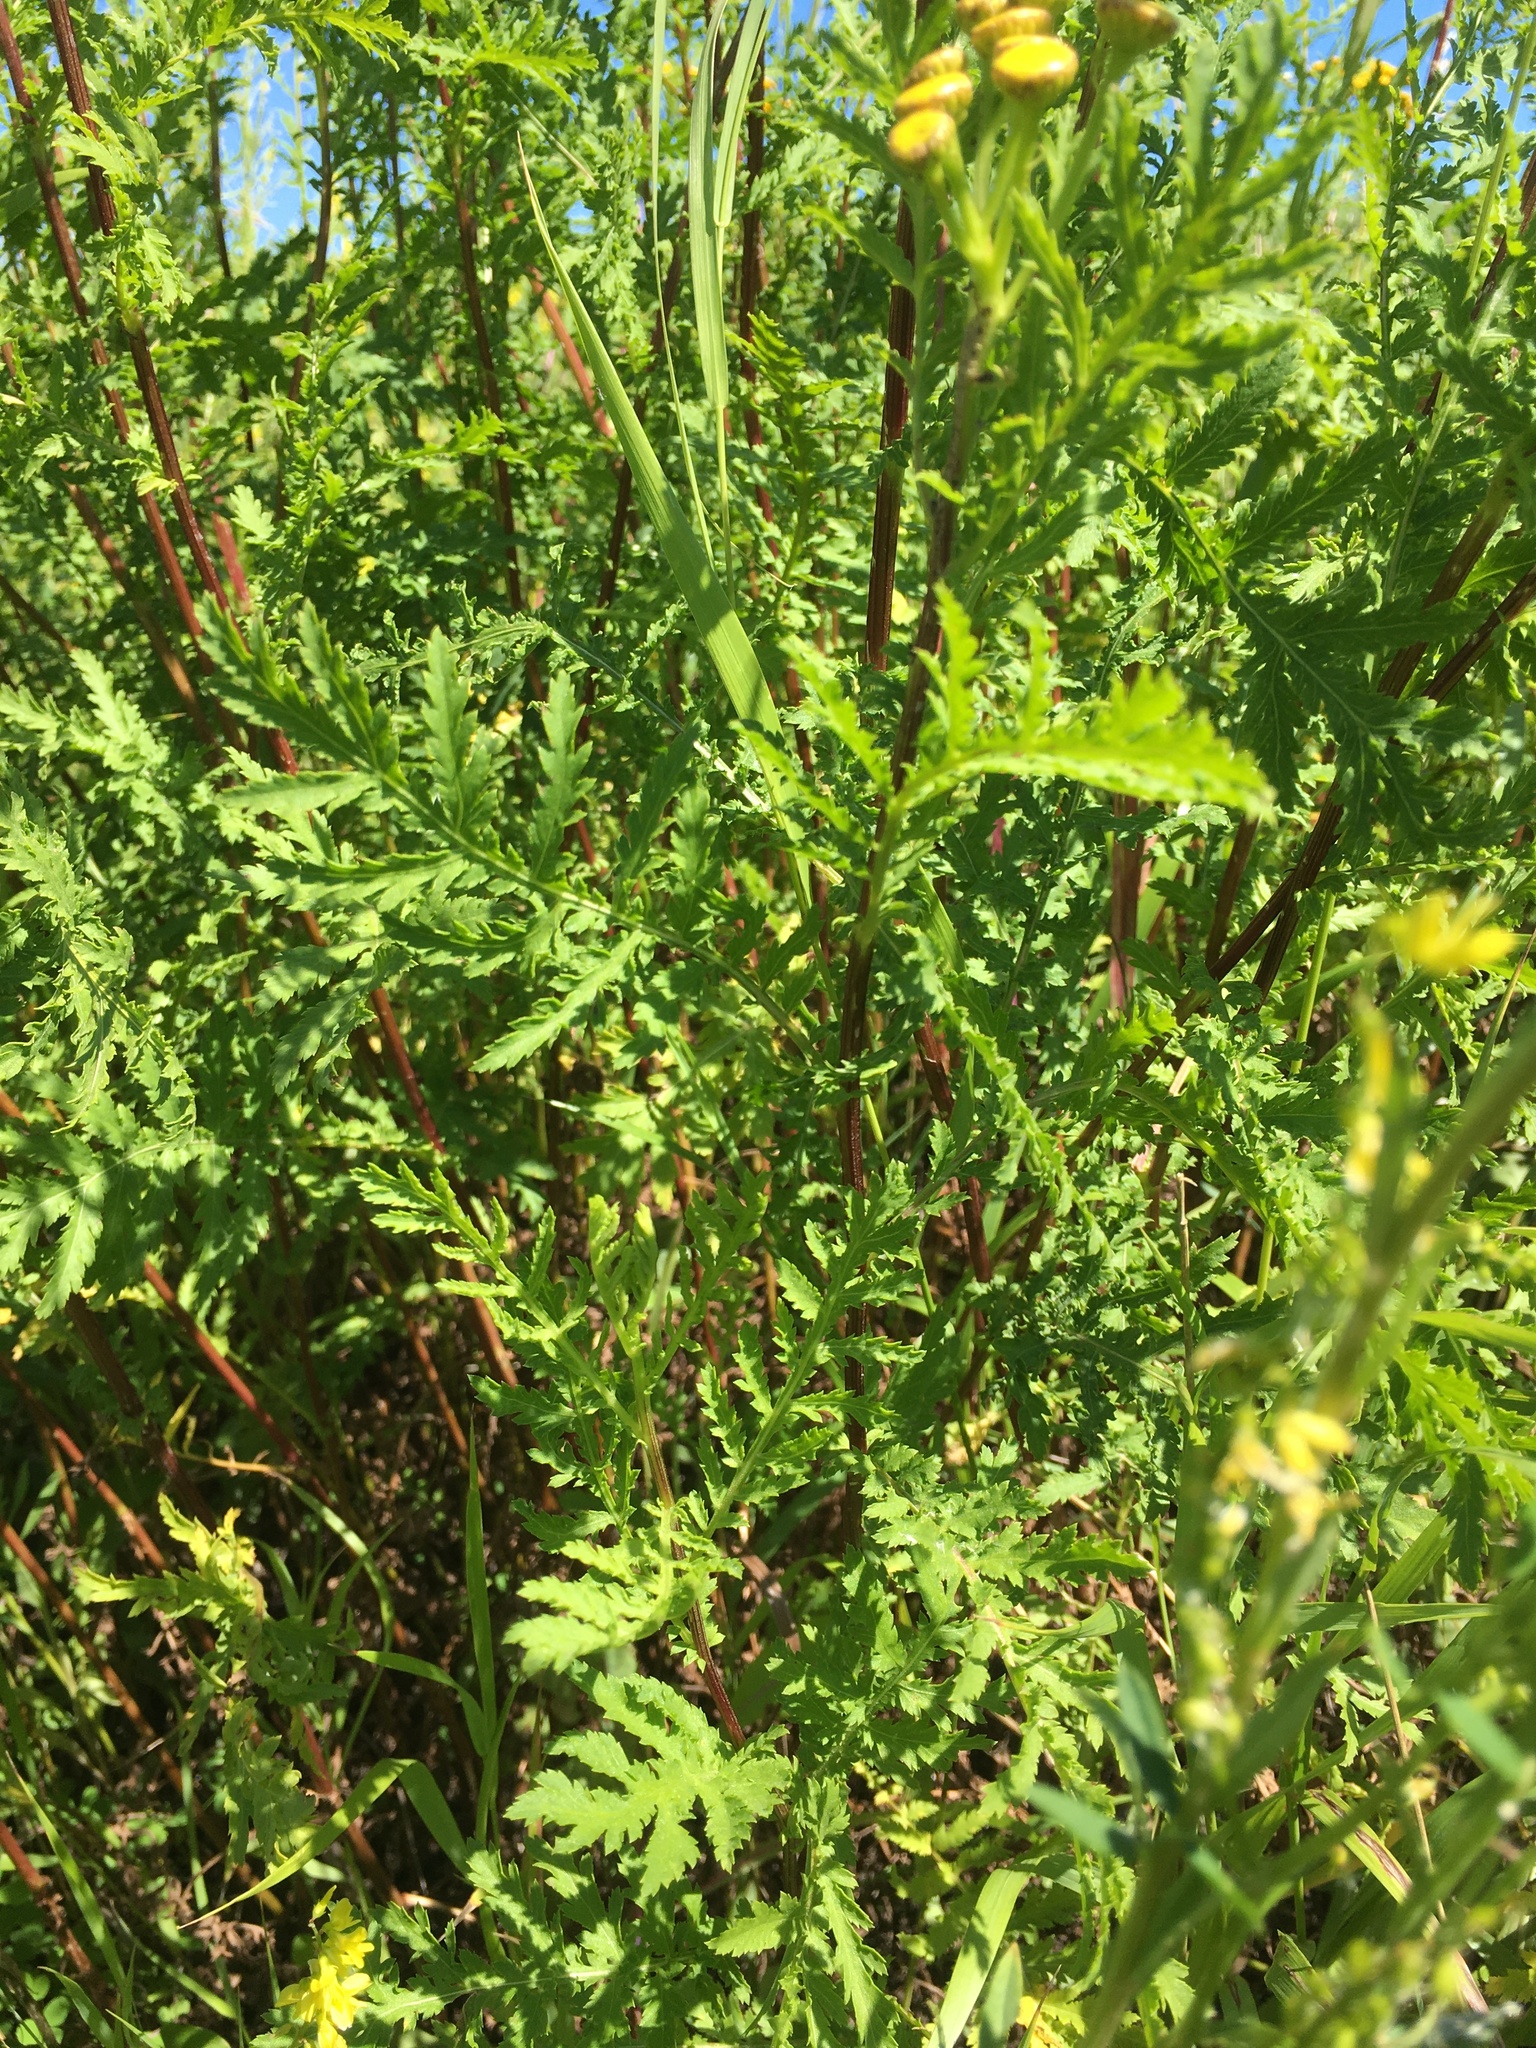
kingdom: Plantae
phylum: Tracheophyta
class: Magnoliopsida
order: Asterales
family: Asteraceae
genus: Tanacetum
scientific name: Tanacetum vulgare
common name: Common tansy
